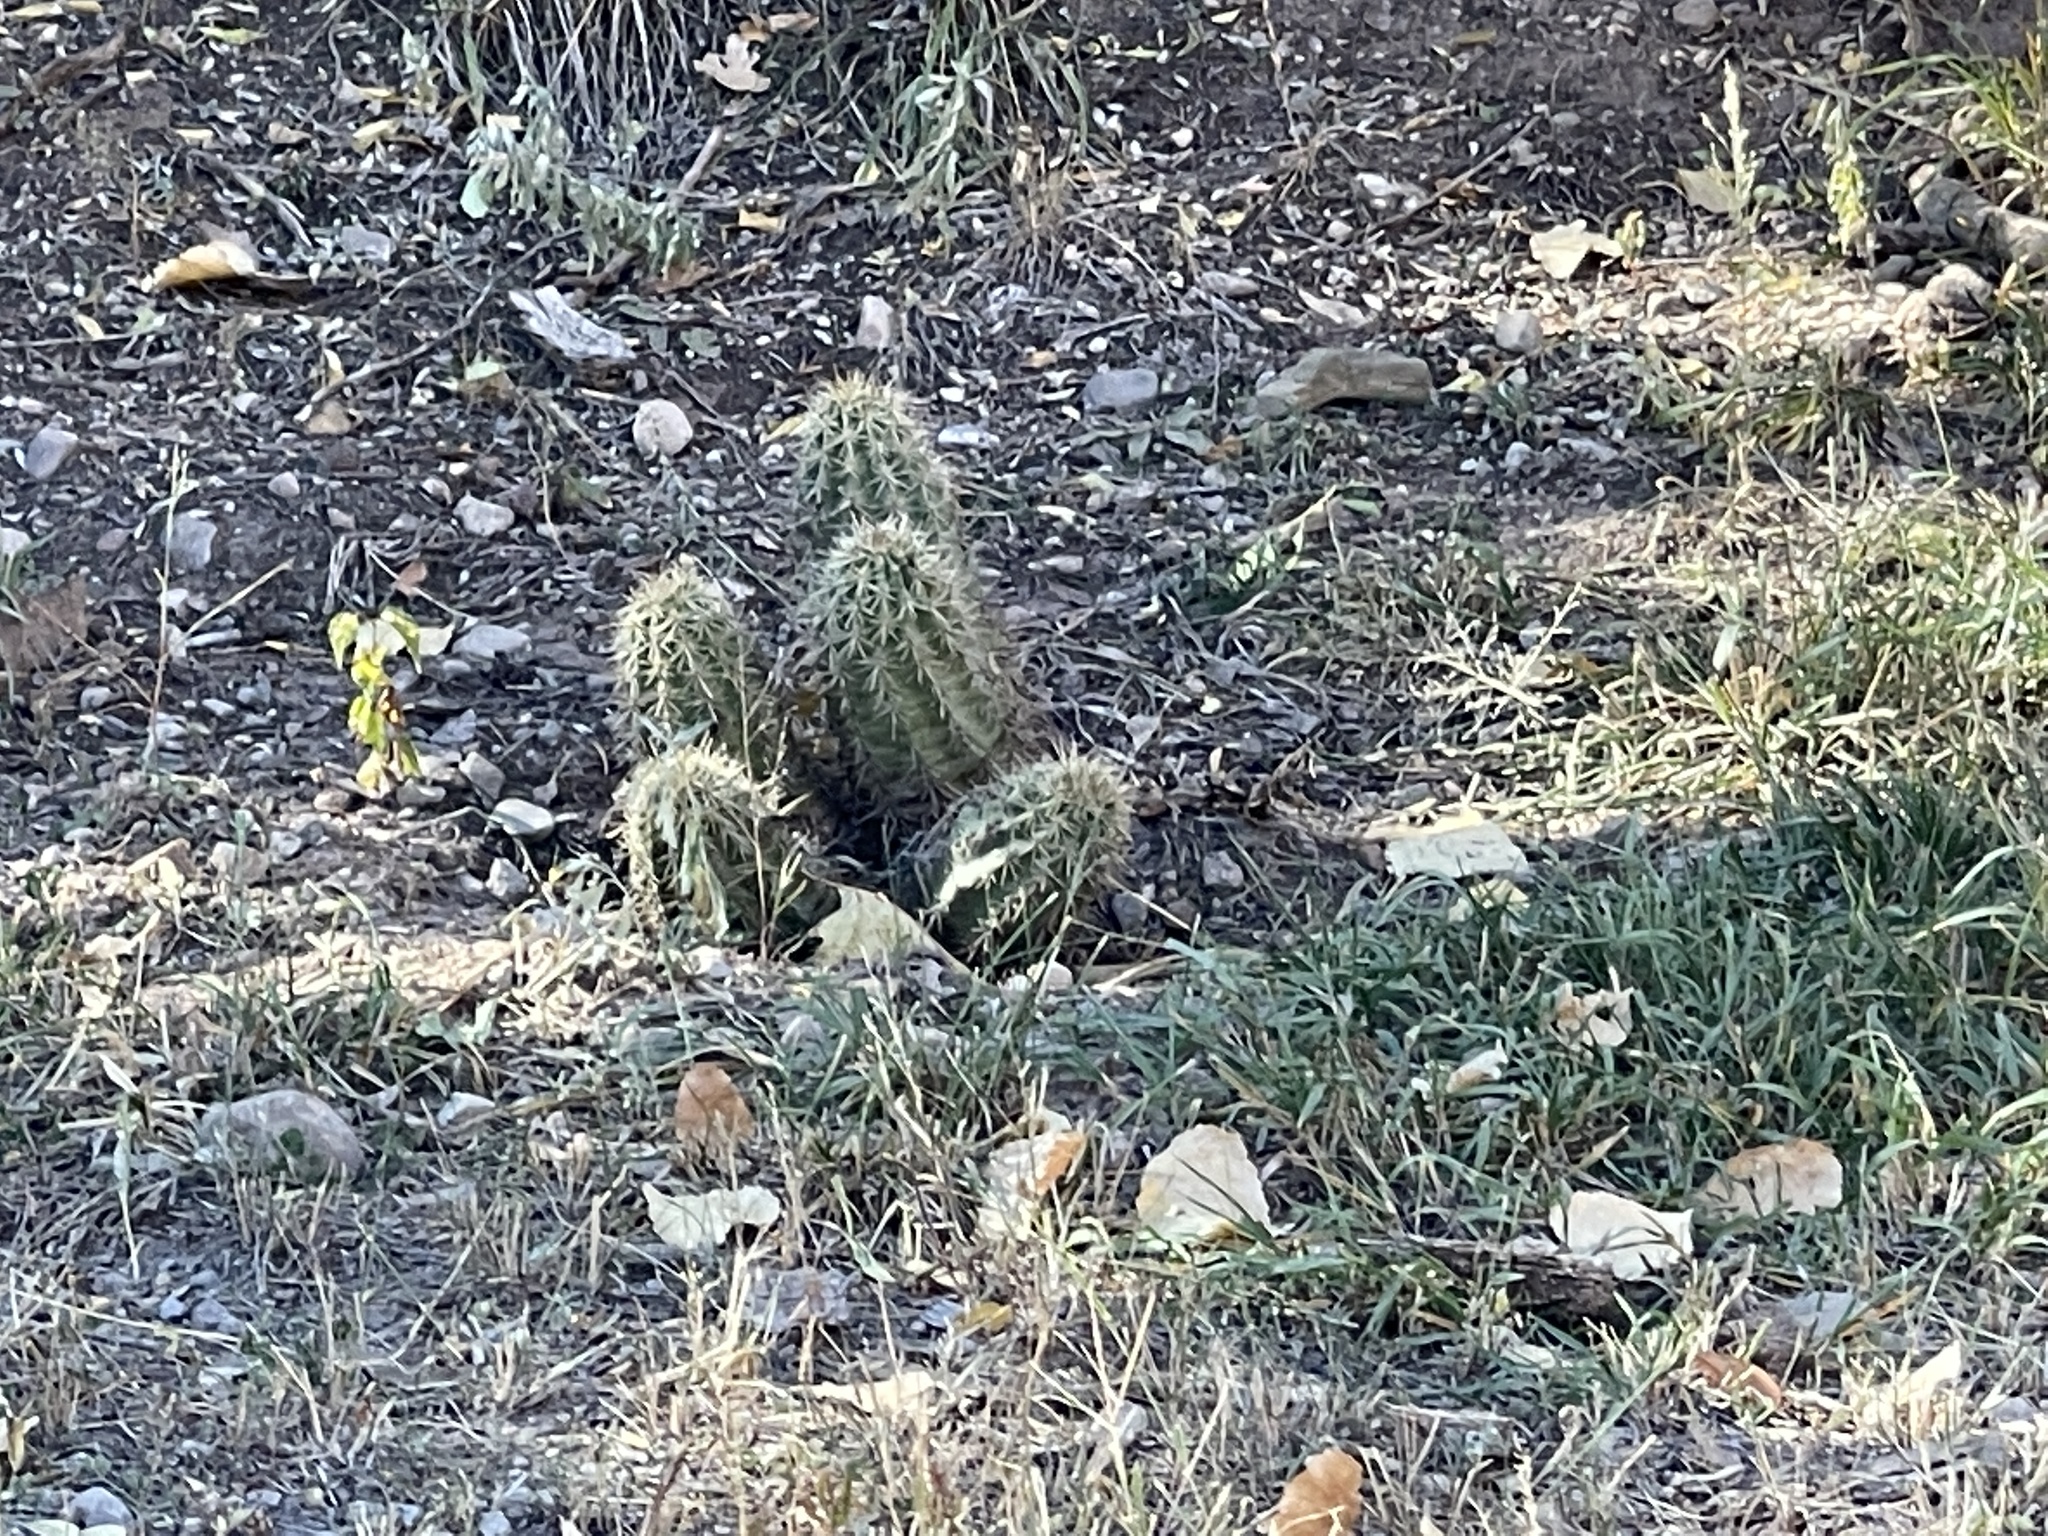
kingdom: Plantae
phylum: Tracheophyta
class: Magnoliopsida
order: Caryophyllales
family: Cactaceae
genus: Echinocereus
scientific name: Echinocereus coccineus
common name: Scarlet hedgehog cactus
